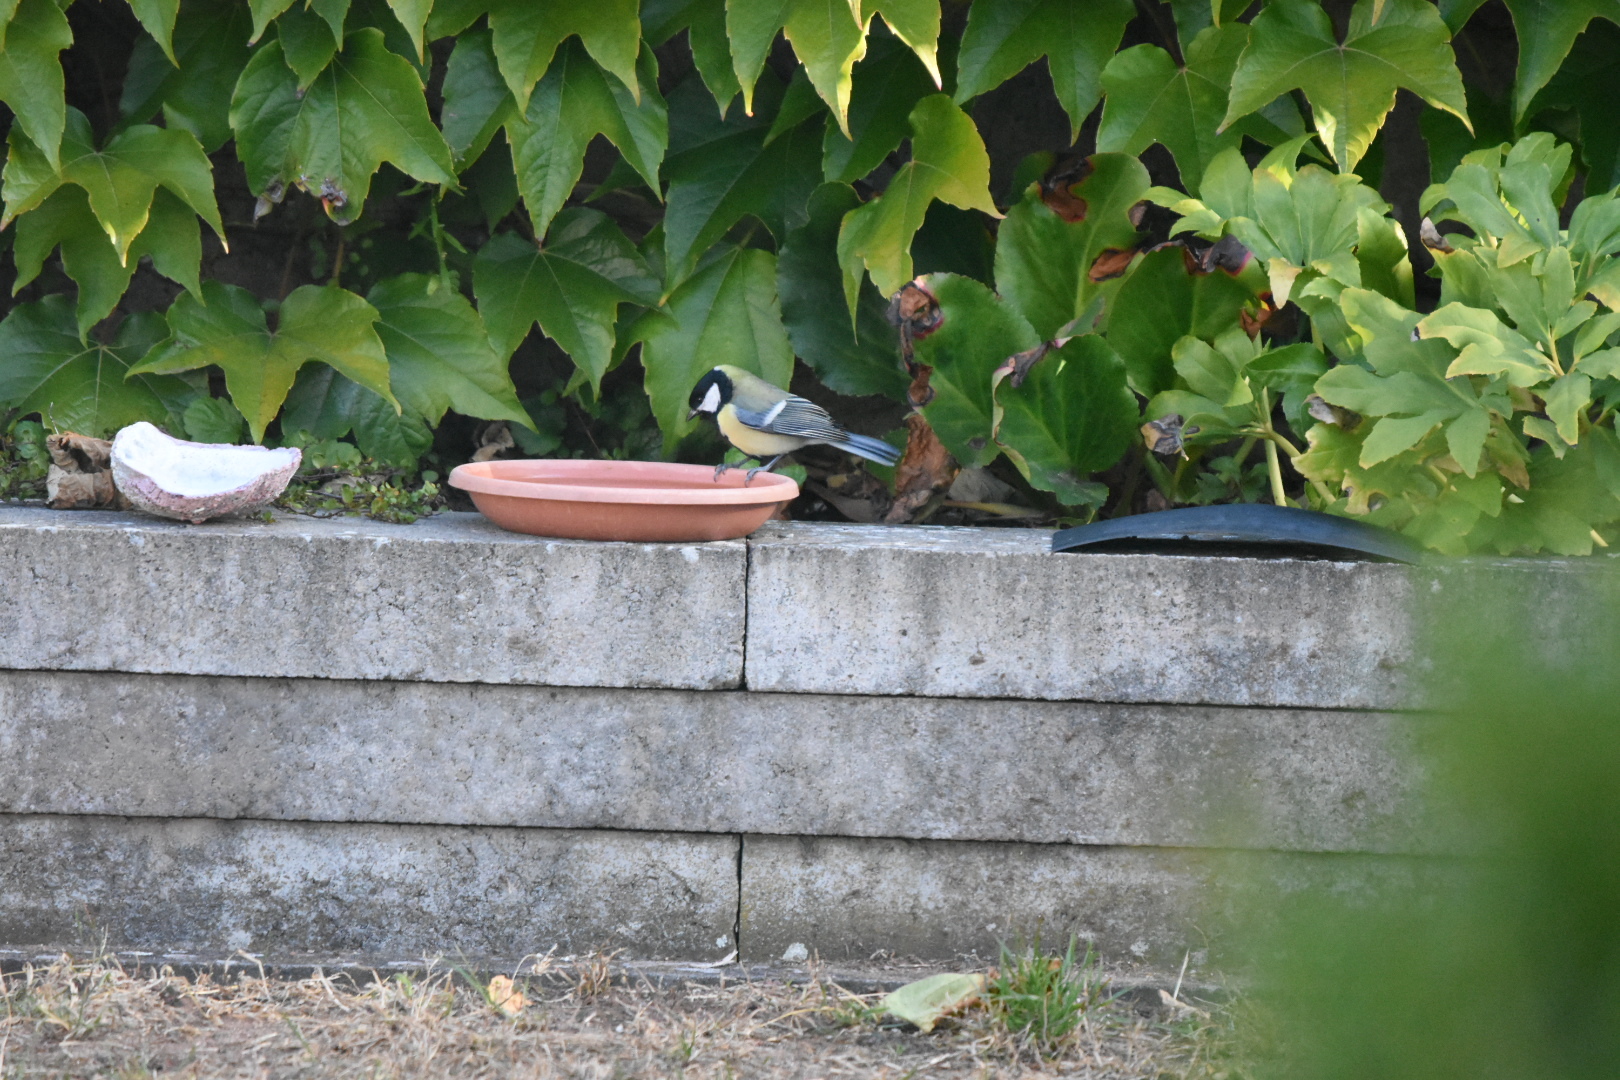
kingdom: Animalia
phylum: Chordata
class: Aves
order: Passeriformes
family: Paridae
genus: Parus
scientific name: Parus major
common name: Great tit
